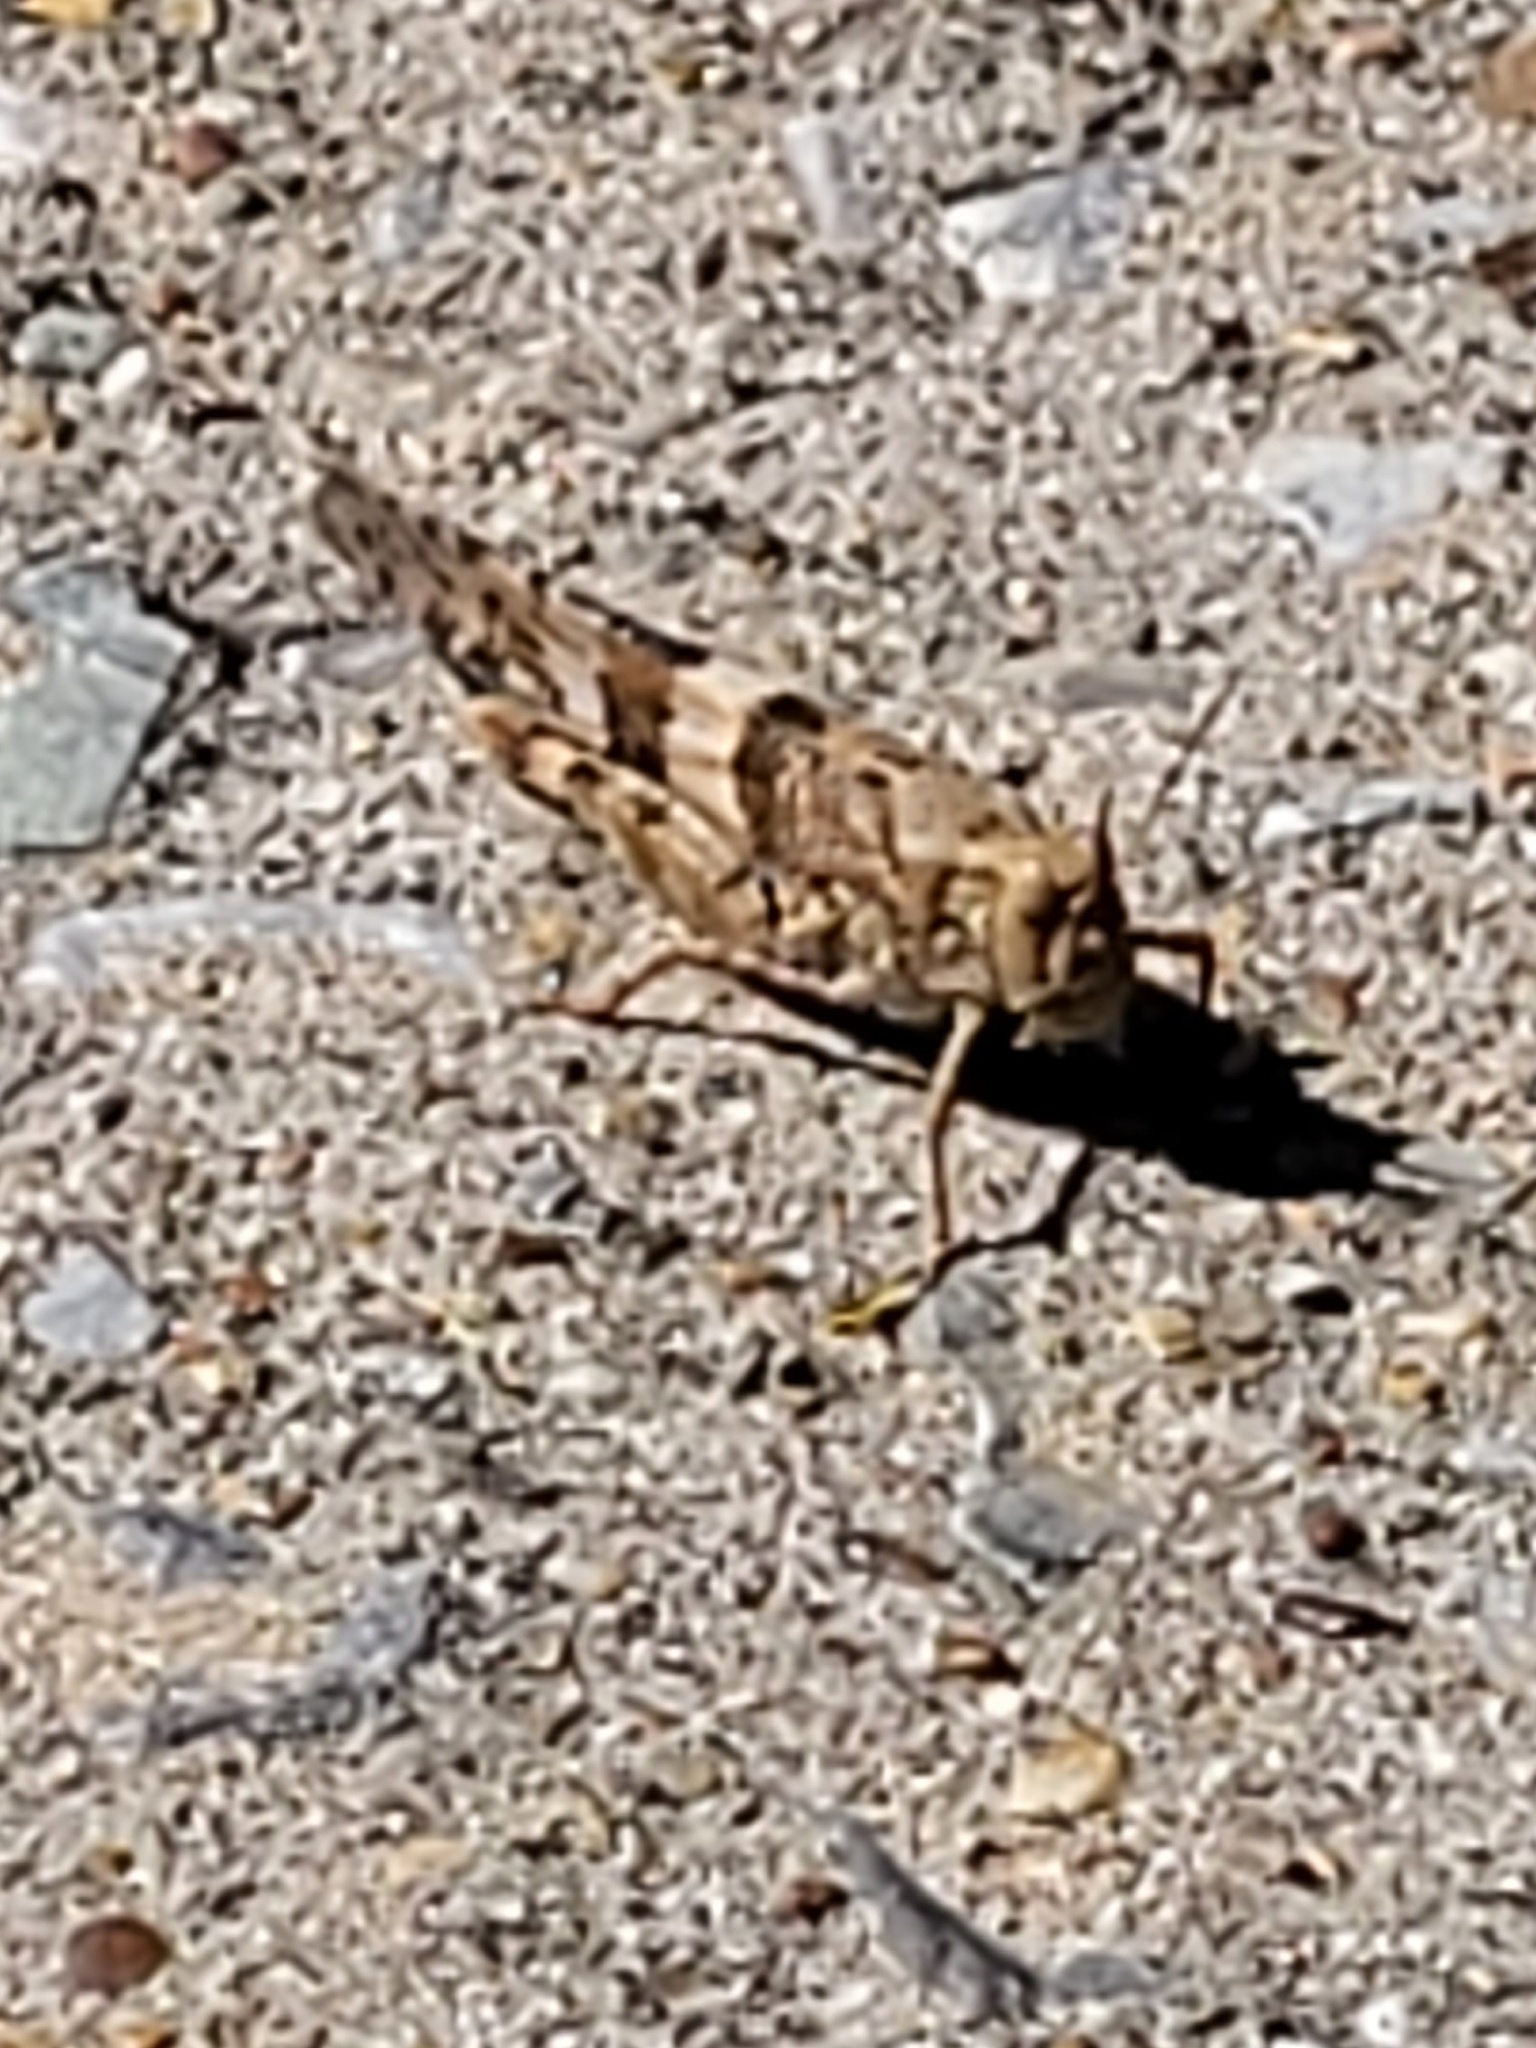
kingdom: Animalia
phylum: Arthropoda
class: Insecta
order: Orthoptera
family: Acrididae
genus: Trimerotropis
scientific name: Trimerotropis pallidipennis
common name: Pallid-winged grasshopper
